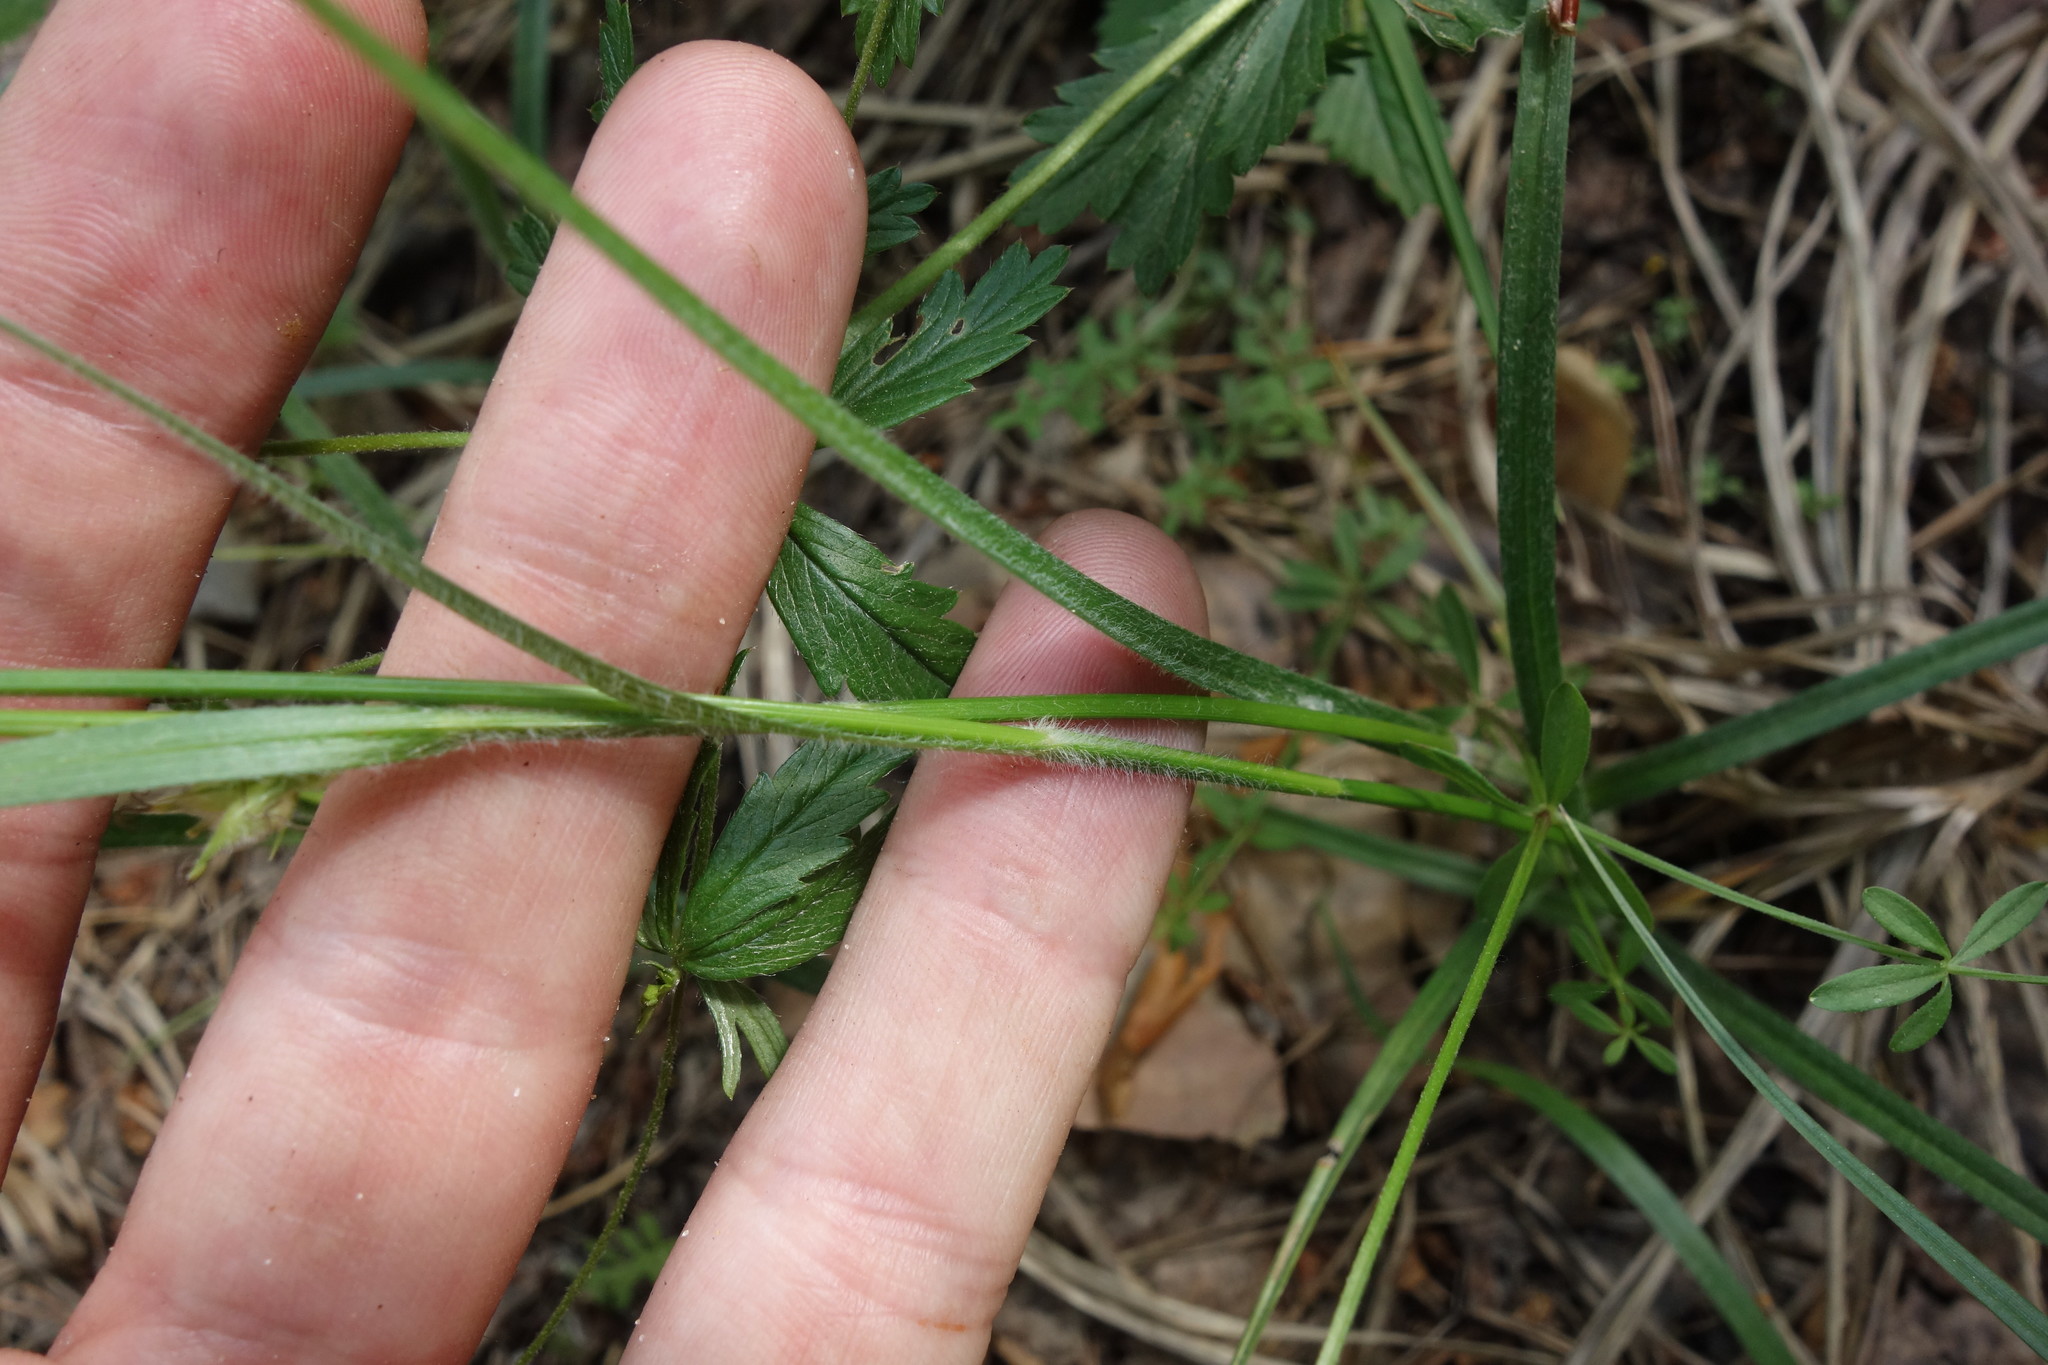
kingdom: Plantae
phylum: Tracheophyta
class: Liliopsida
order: Poales
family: Cyperaceae
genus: Carex
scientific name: Carex hirta
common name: Hairy sedge
